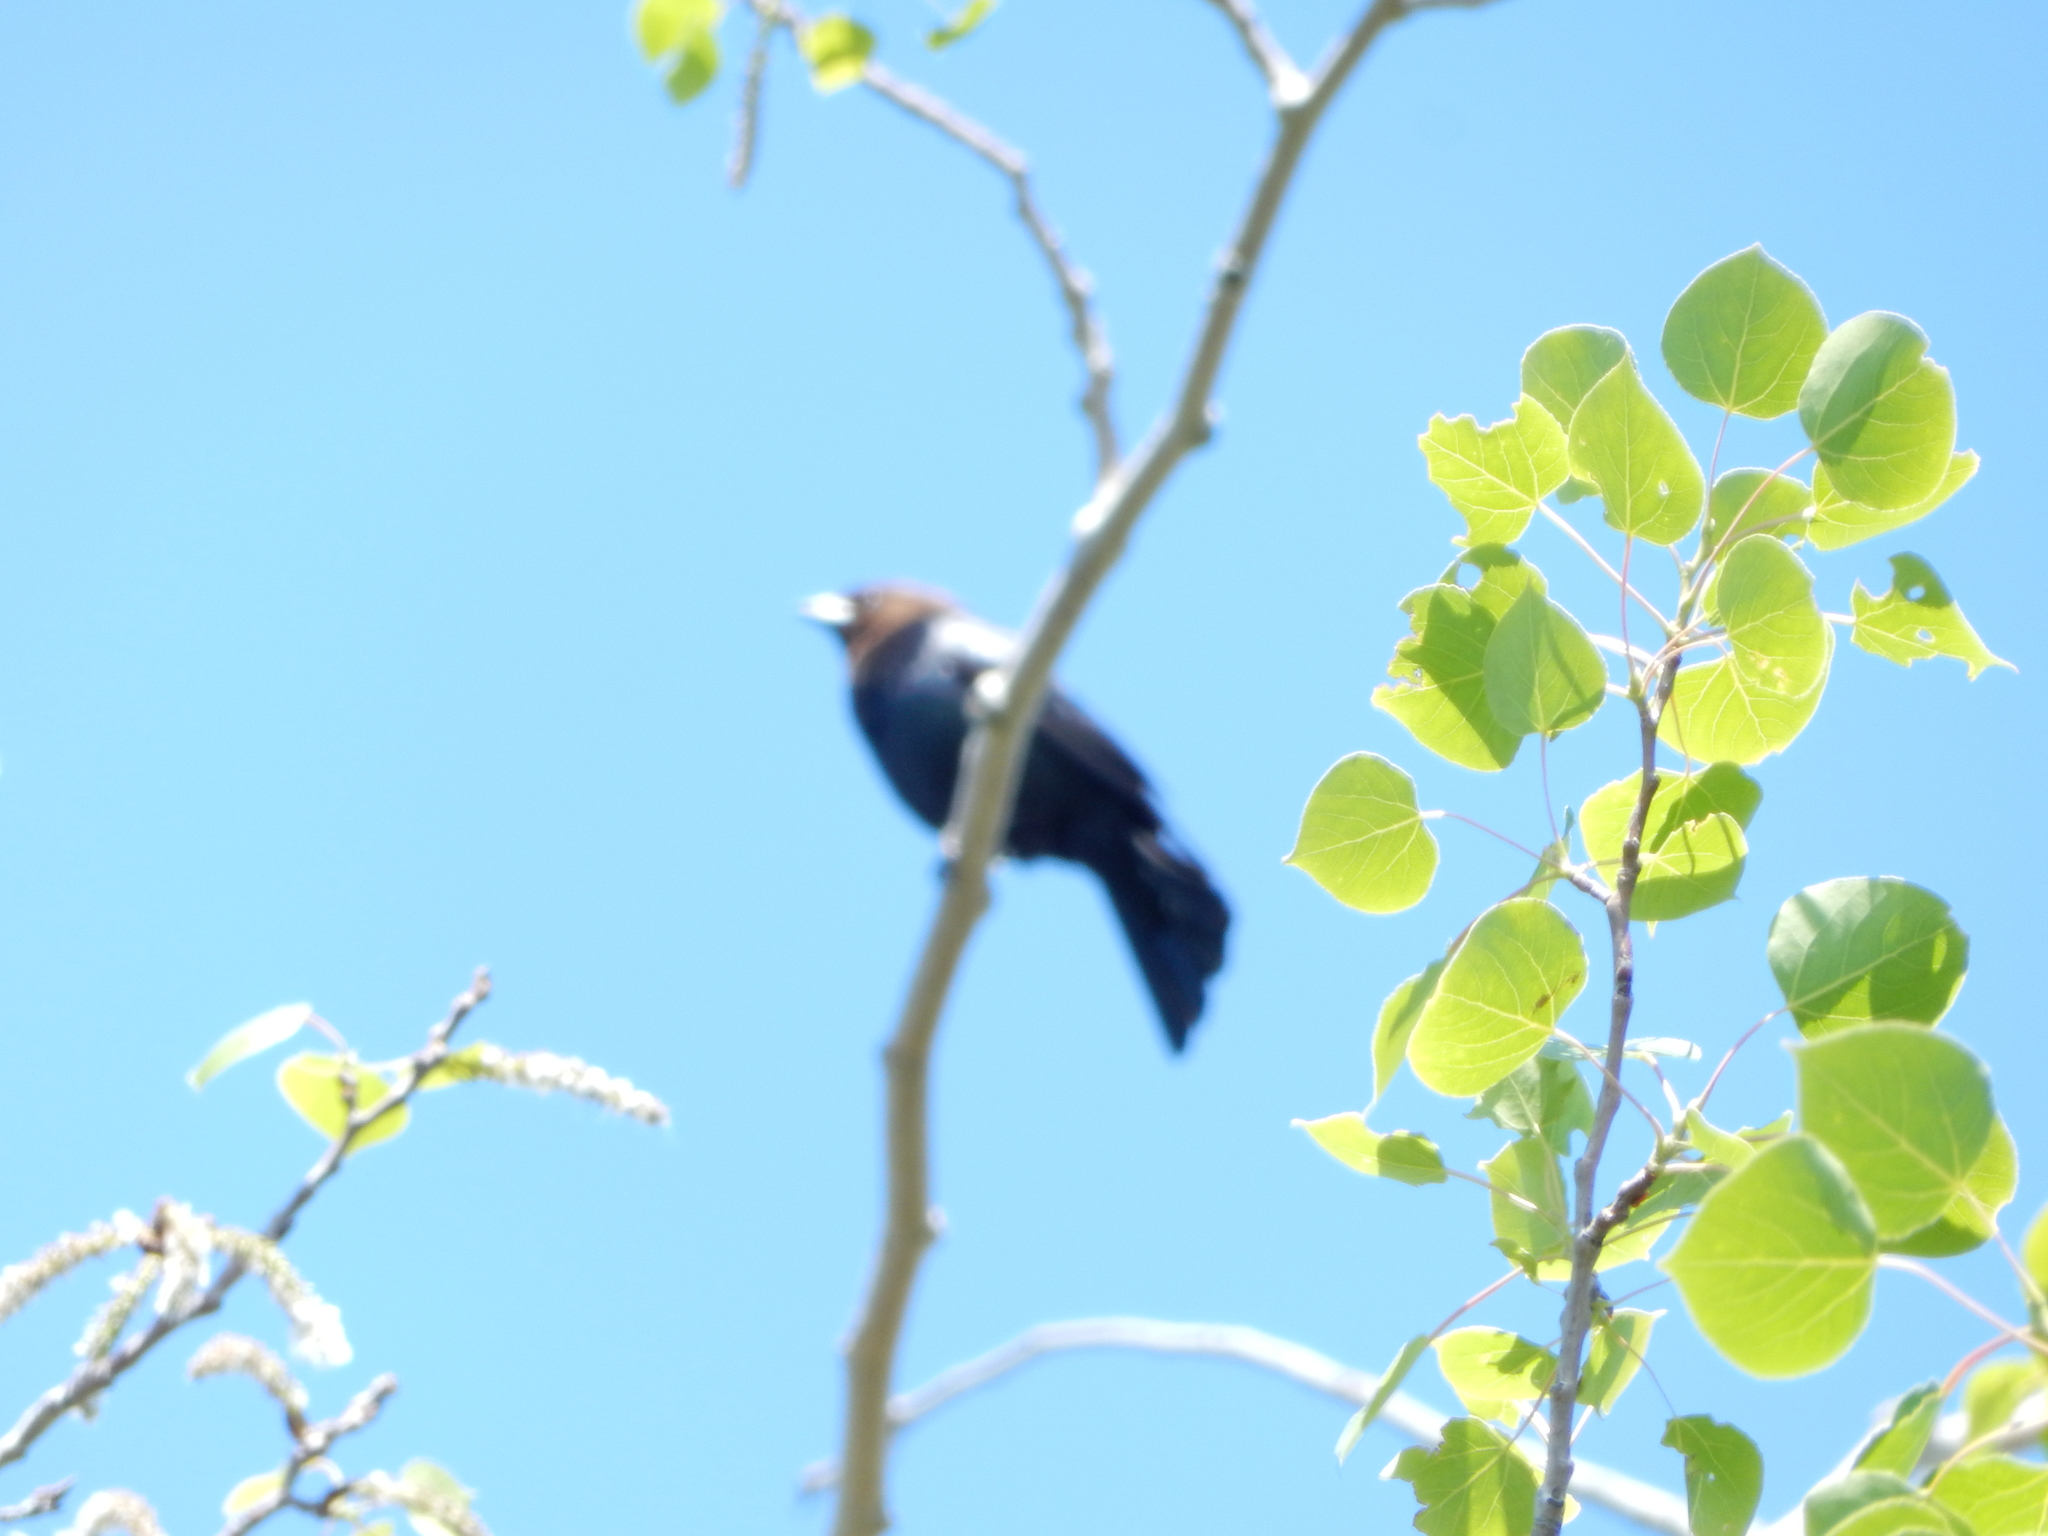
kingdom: Animalia
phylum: Chordata
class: Aves
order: Passeriformes
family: Icteridae
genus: Molothrus
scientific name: Molothrus ater
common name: Brown-headed cowbird
